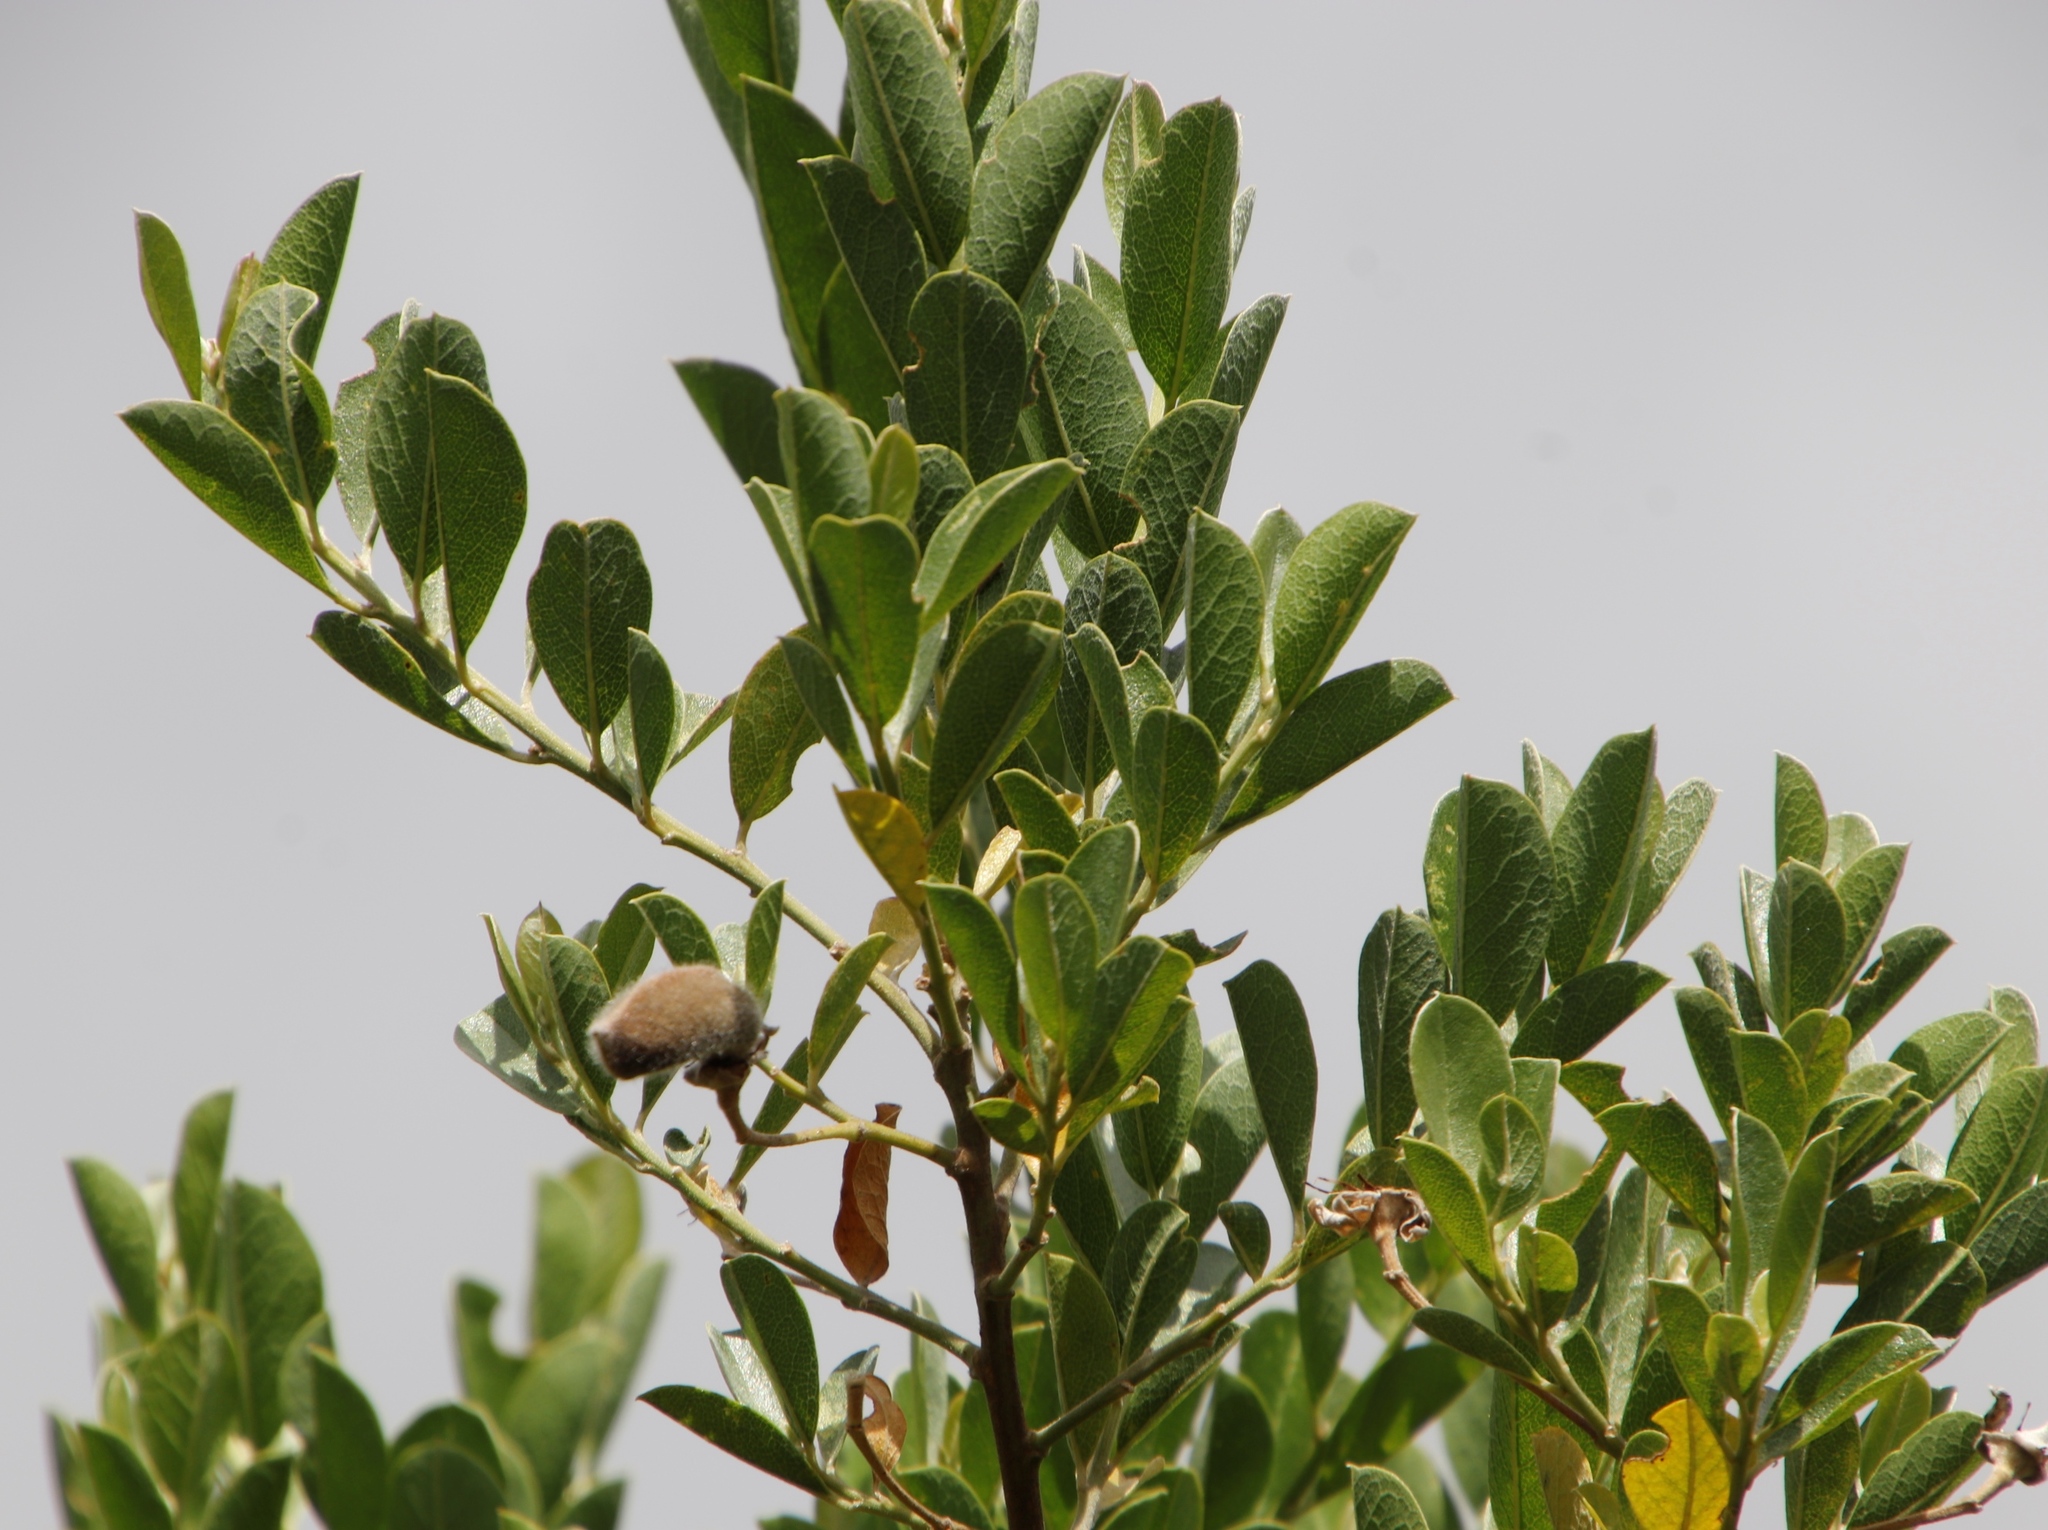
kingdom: Plantae
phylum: Tracheophyta
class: Magnoliopsida
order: Fabales
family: Fabaceae
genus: Podalyria
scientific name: Podalyria calyptrata
